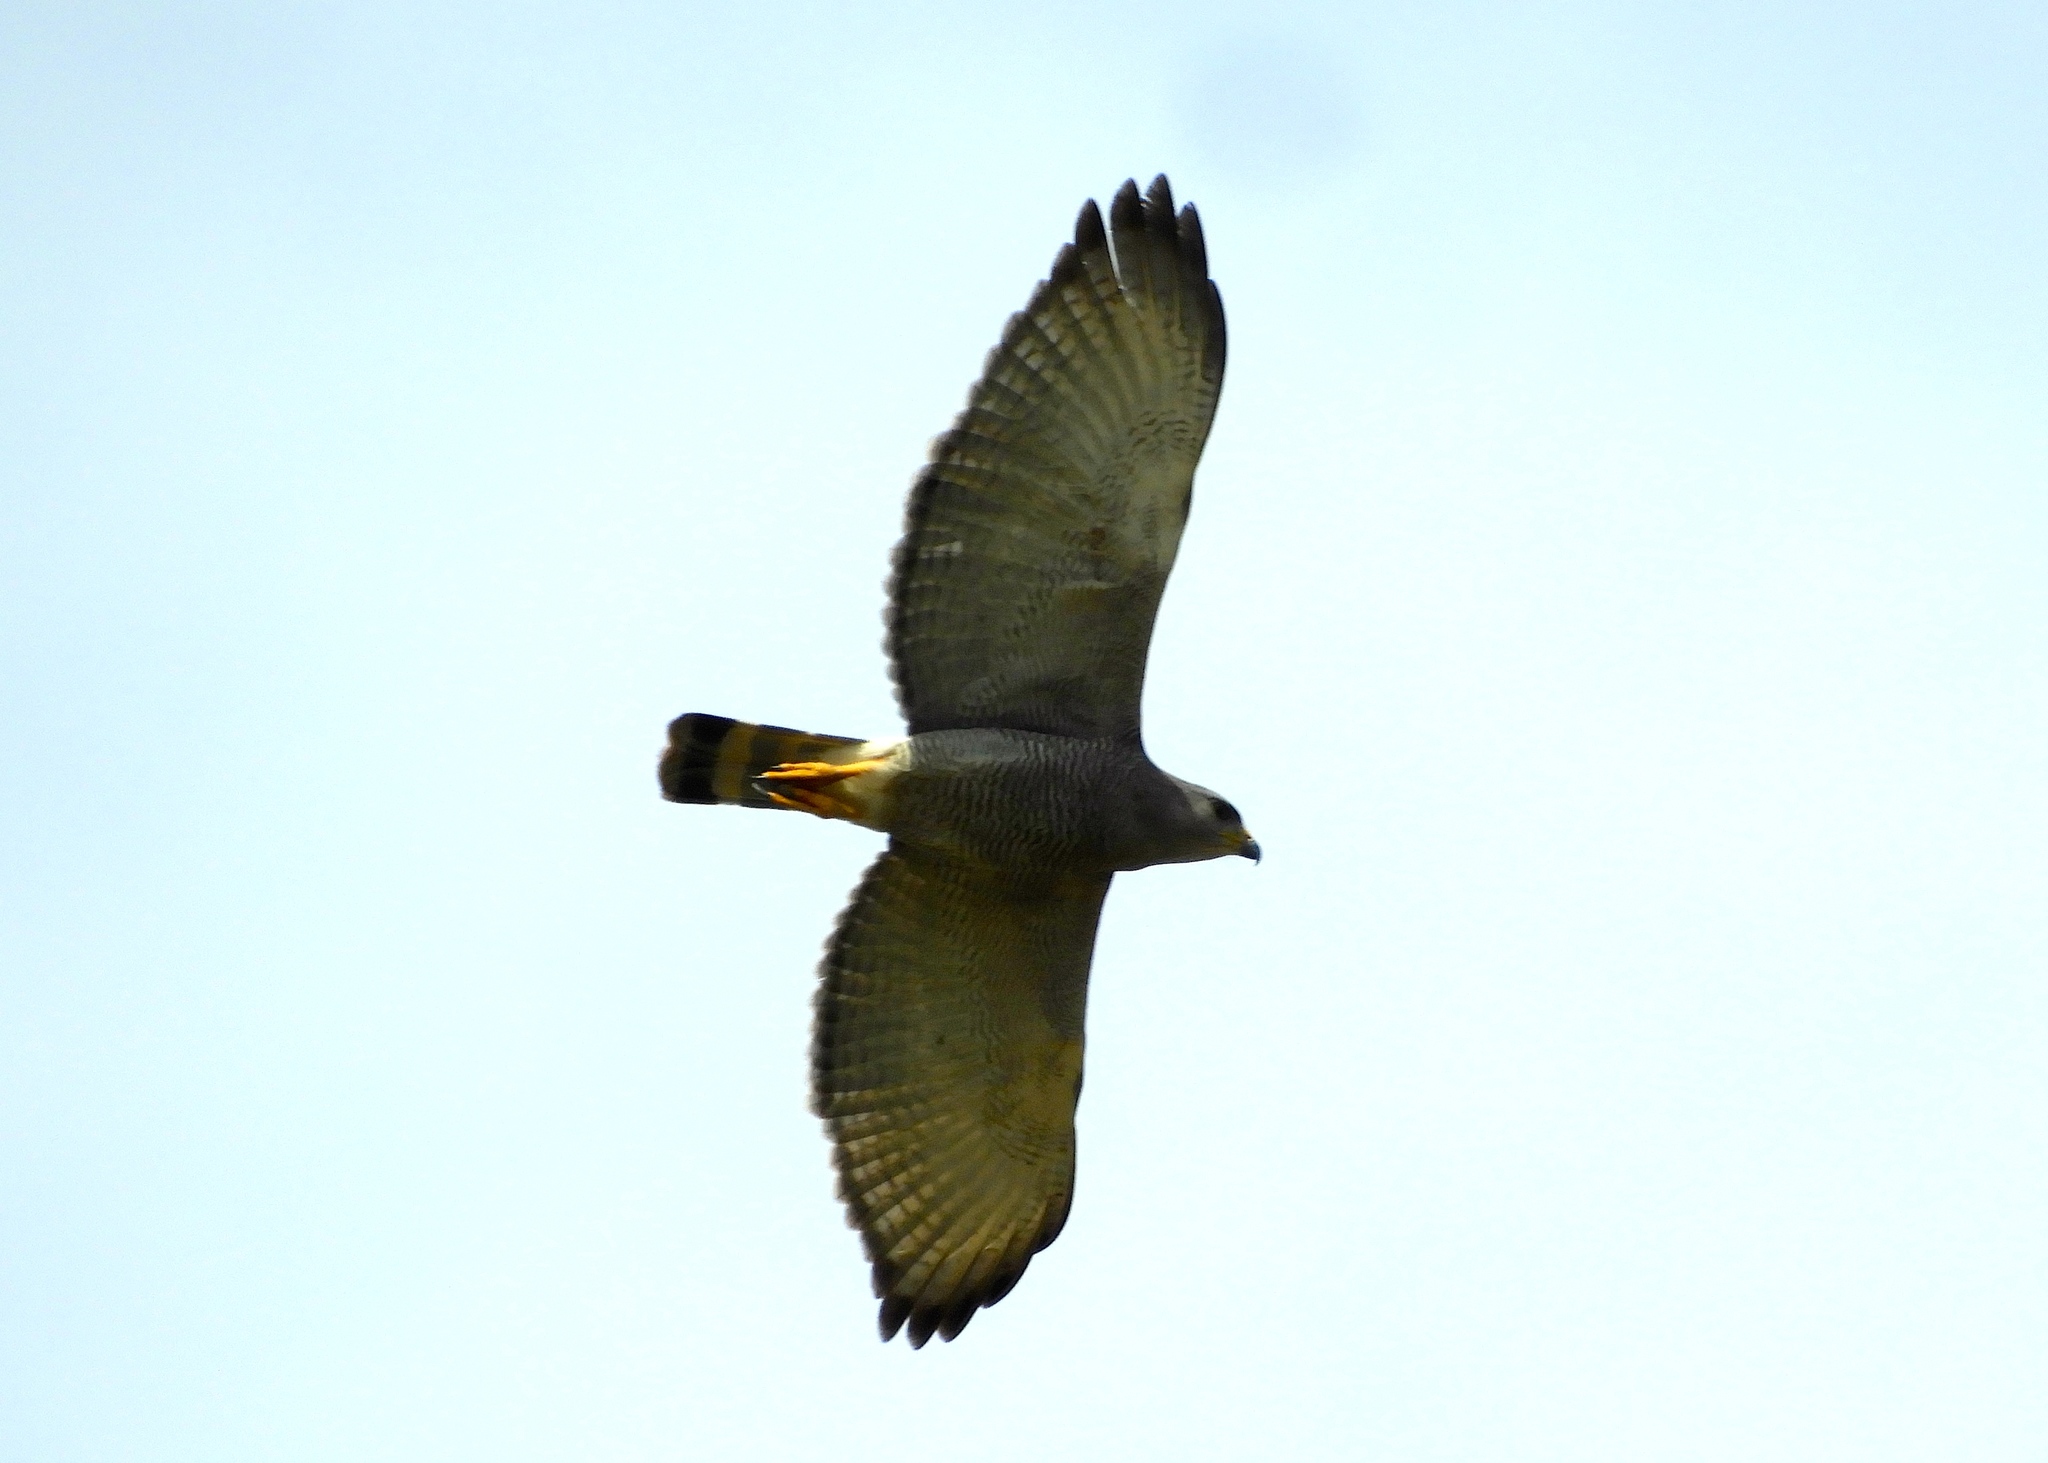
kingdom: Animalia
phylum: Chordata
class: Aves
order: Accipitriformes
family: Accipitridae
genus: Buteo
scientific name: Buteo nitidus
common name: Grey-lined hawk
